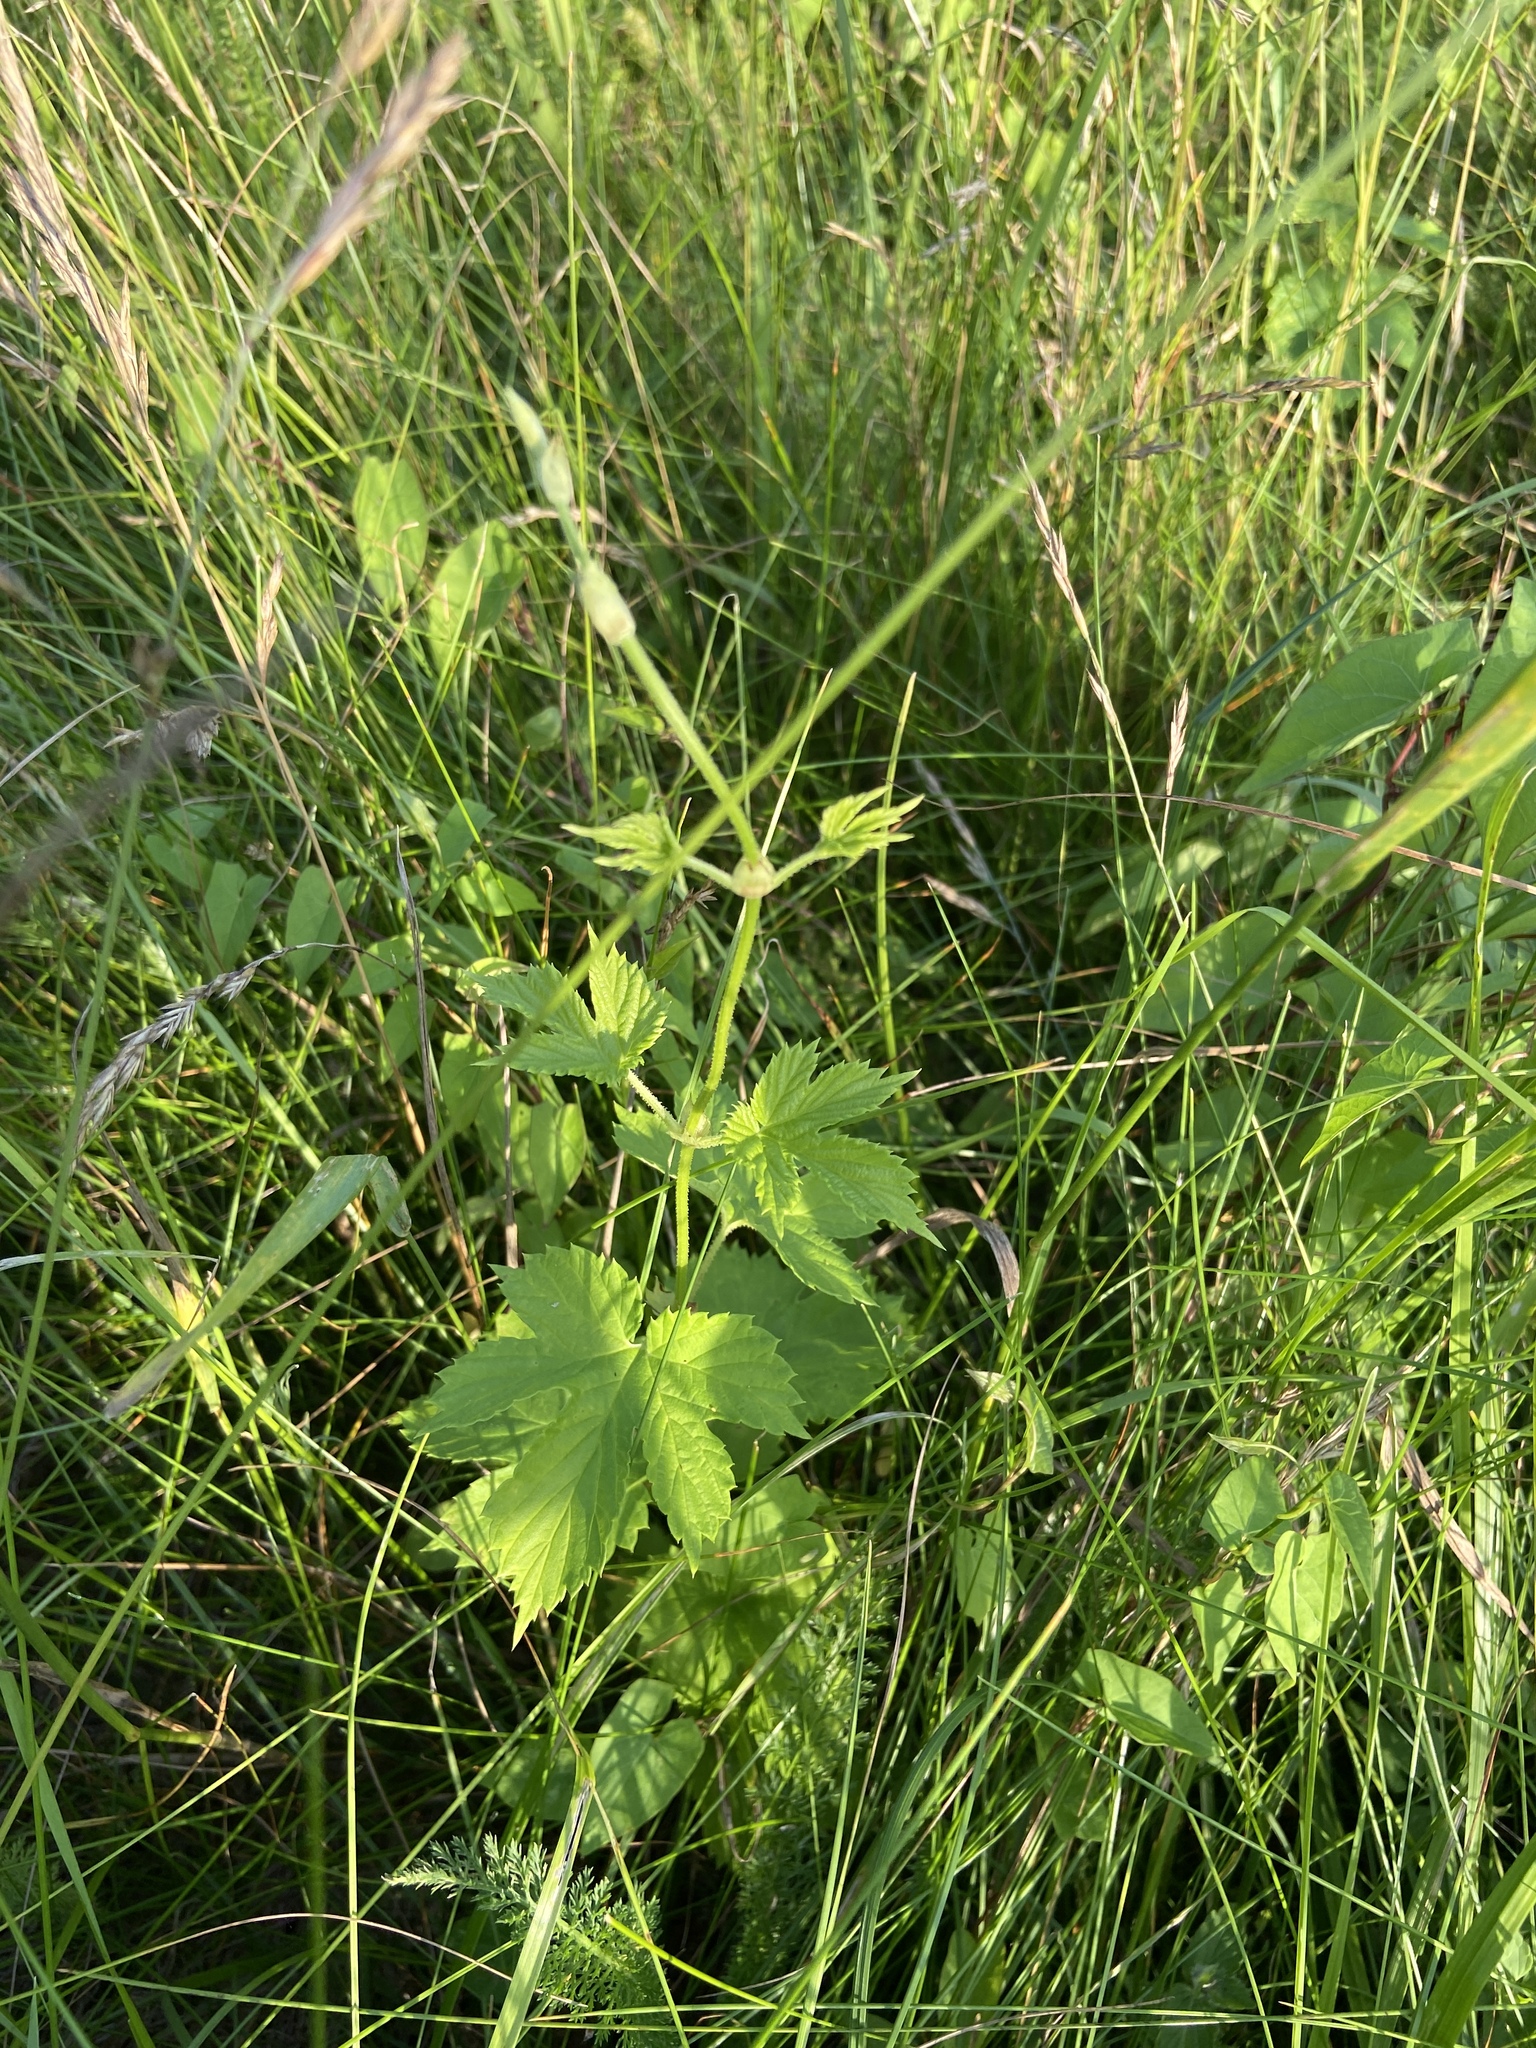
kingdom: Plantae
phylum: Tracheophyta
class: Magnoliopsida
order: Rosales
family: Cannabaceae
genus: Humulus
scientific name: Humulus lupulus
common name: Hop
